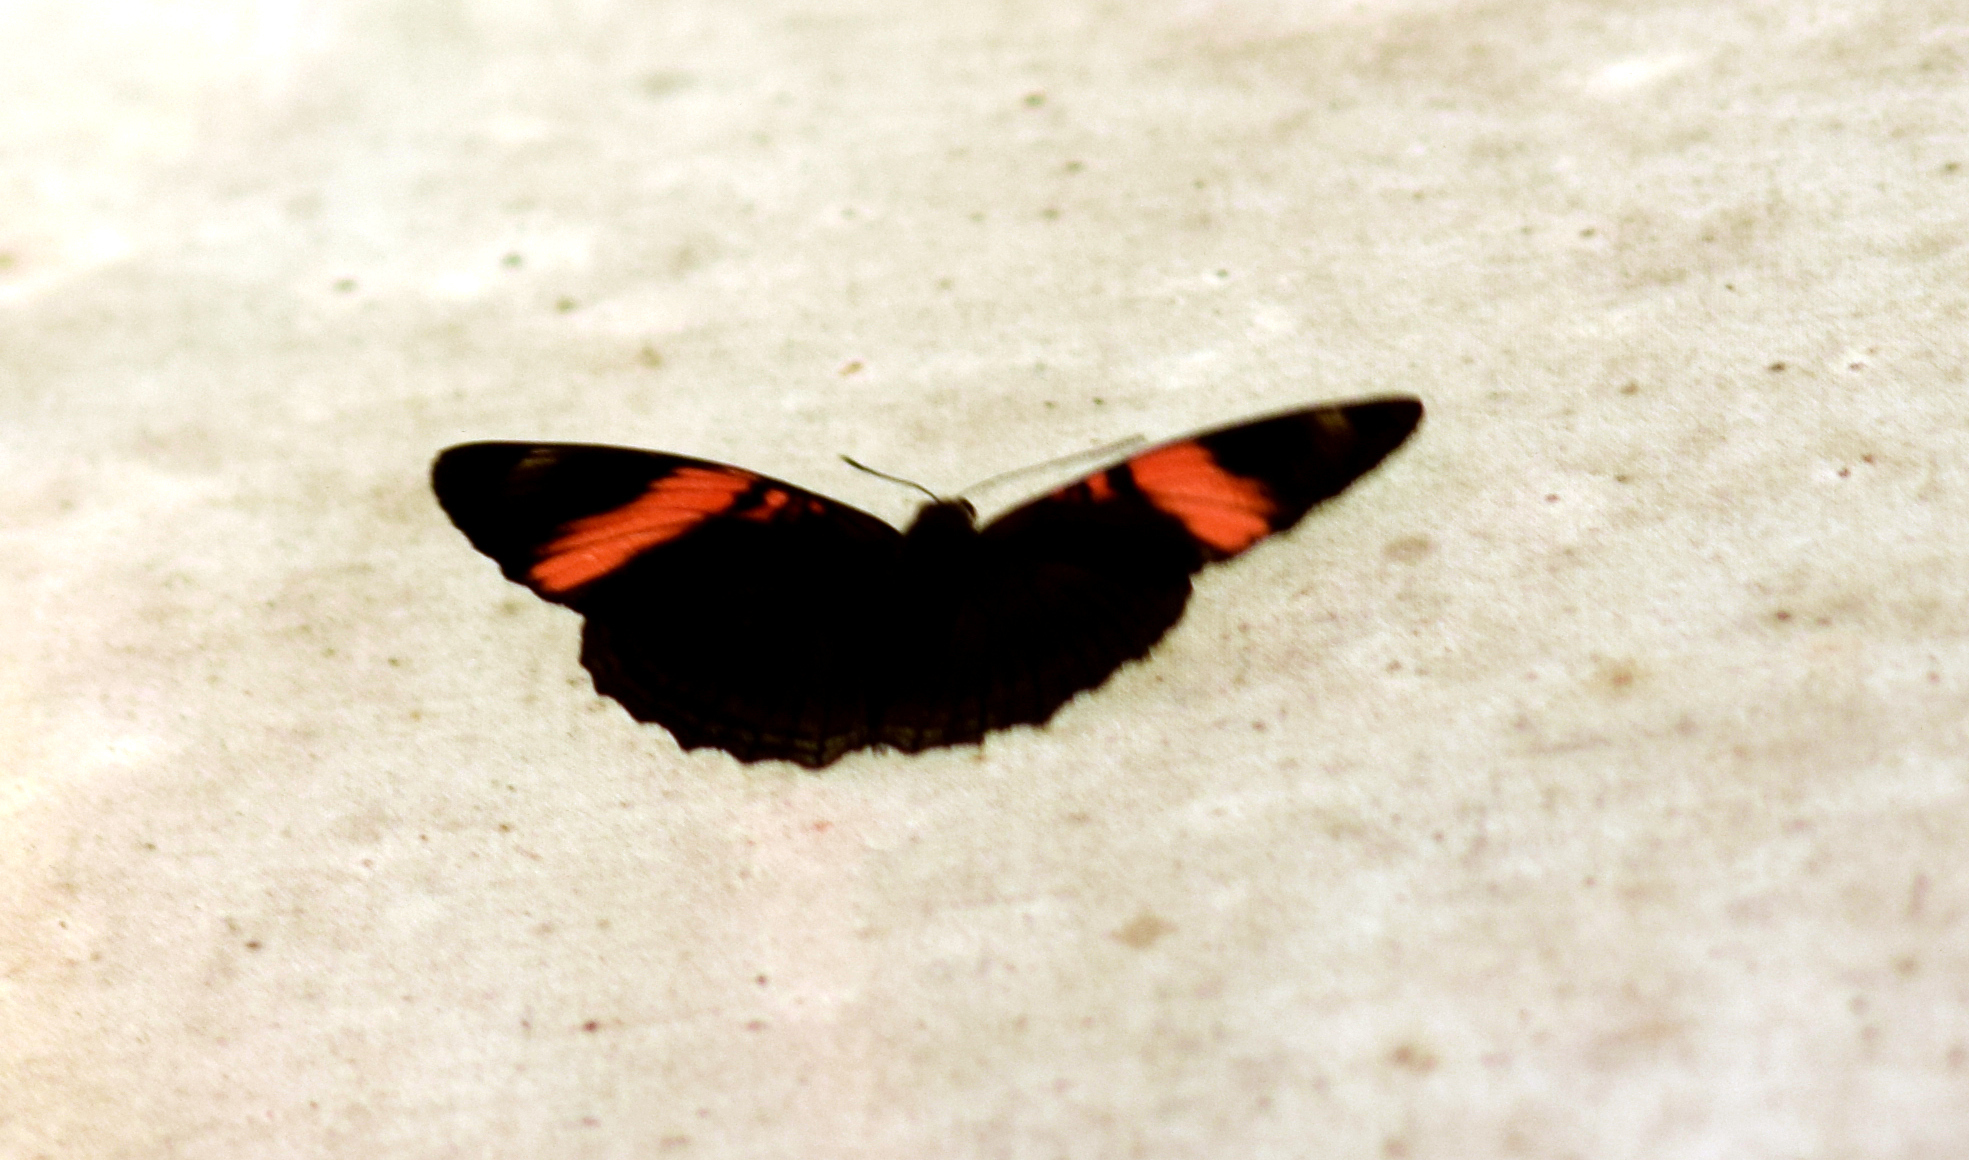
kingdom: Animalia
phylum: Arthropoda
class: Insecta
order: Lepidoptera
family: Nymphalidae
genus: Limenitis
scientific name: Limenitis isis
